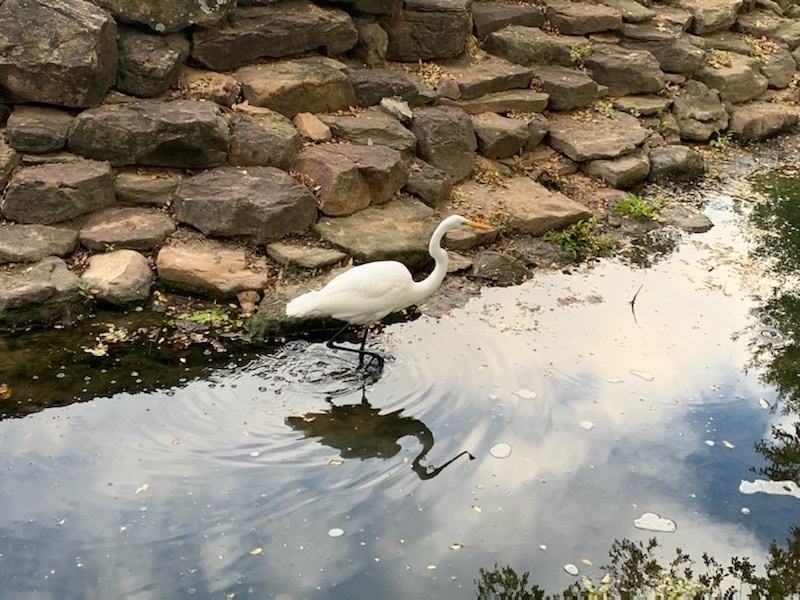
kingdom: Animalia
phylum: Chordata
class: Aves
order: Pelecaniformes
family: Ardeidae
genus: Ardea
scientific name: Ardea alba
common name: Great egret
